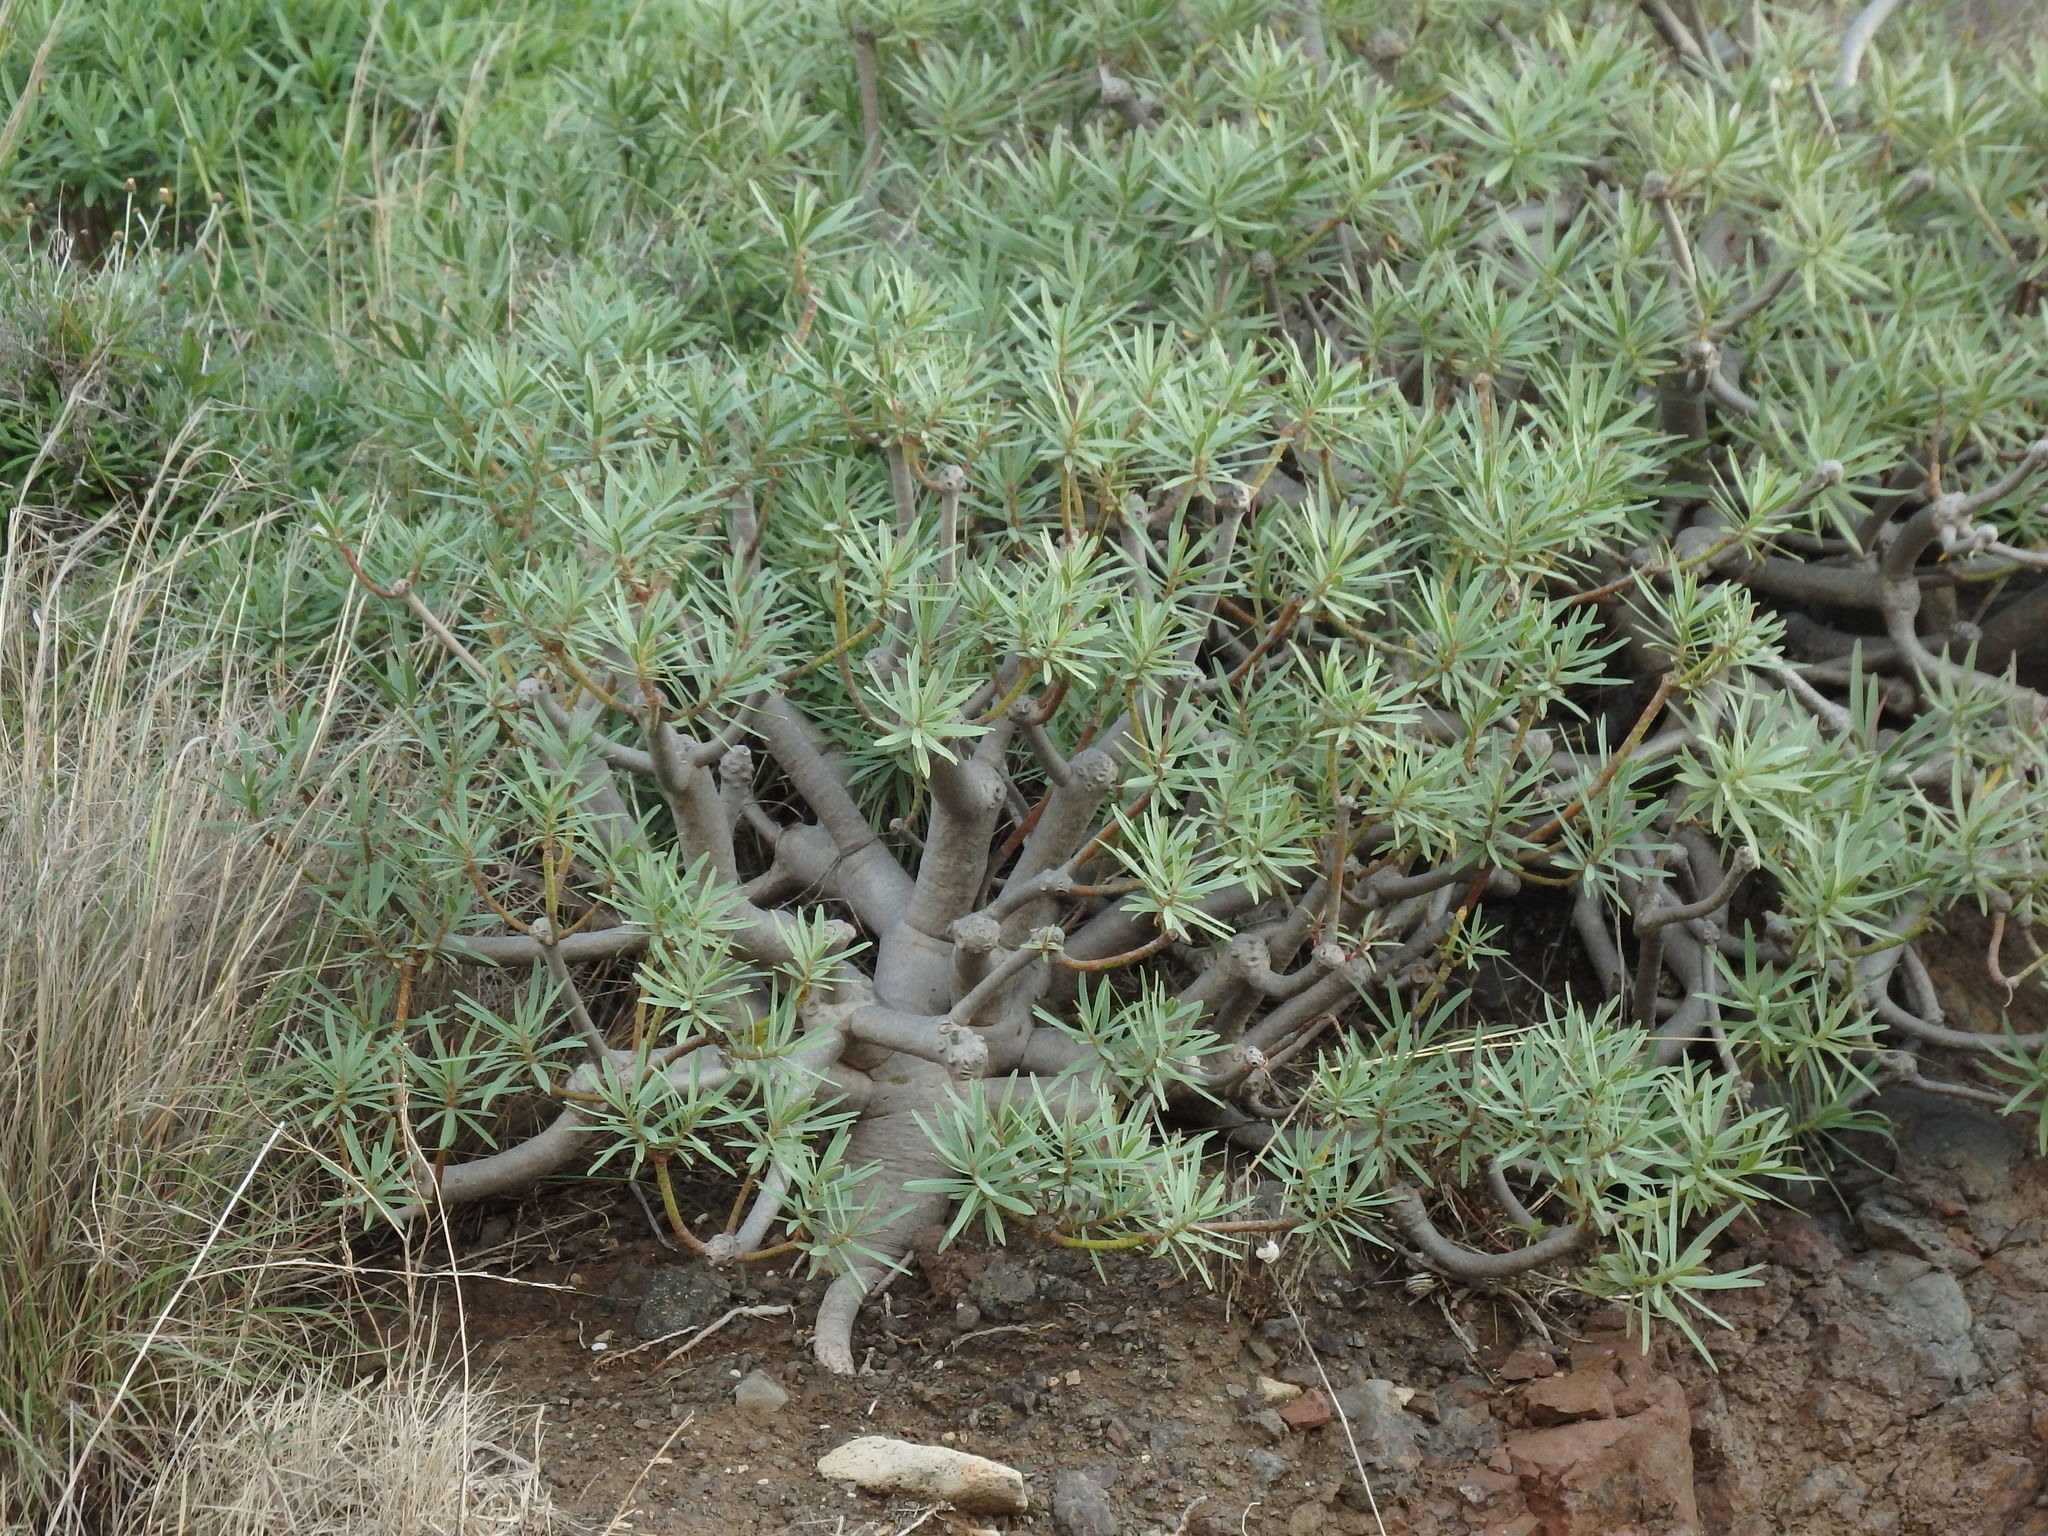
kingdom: Plantae
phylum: Tracheophyta
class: Magnoliopsida
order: Malpighiales
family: Euphorbiaceae
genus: Euphorbia
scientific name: Euphorbia piscatoria
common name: Fish-stunning spurge
